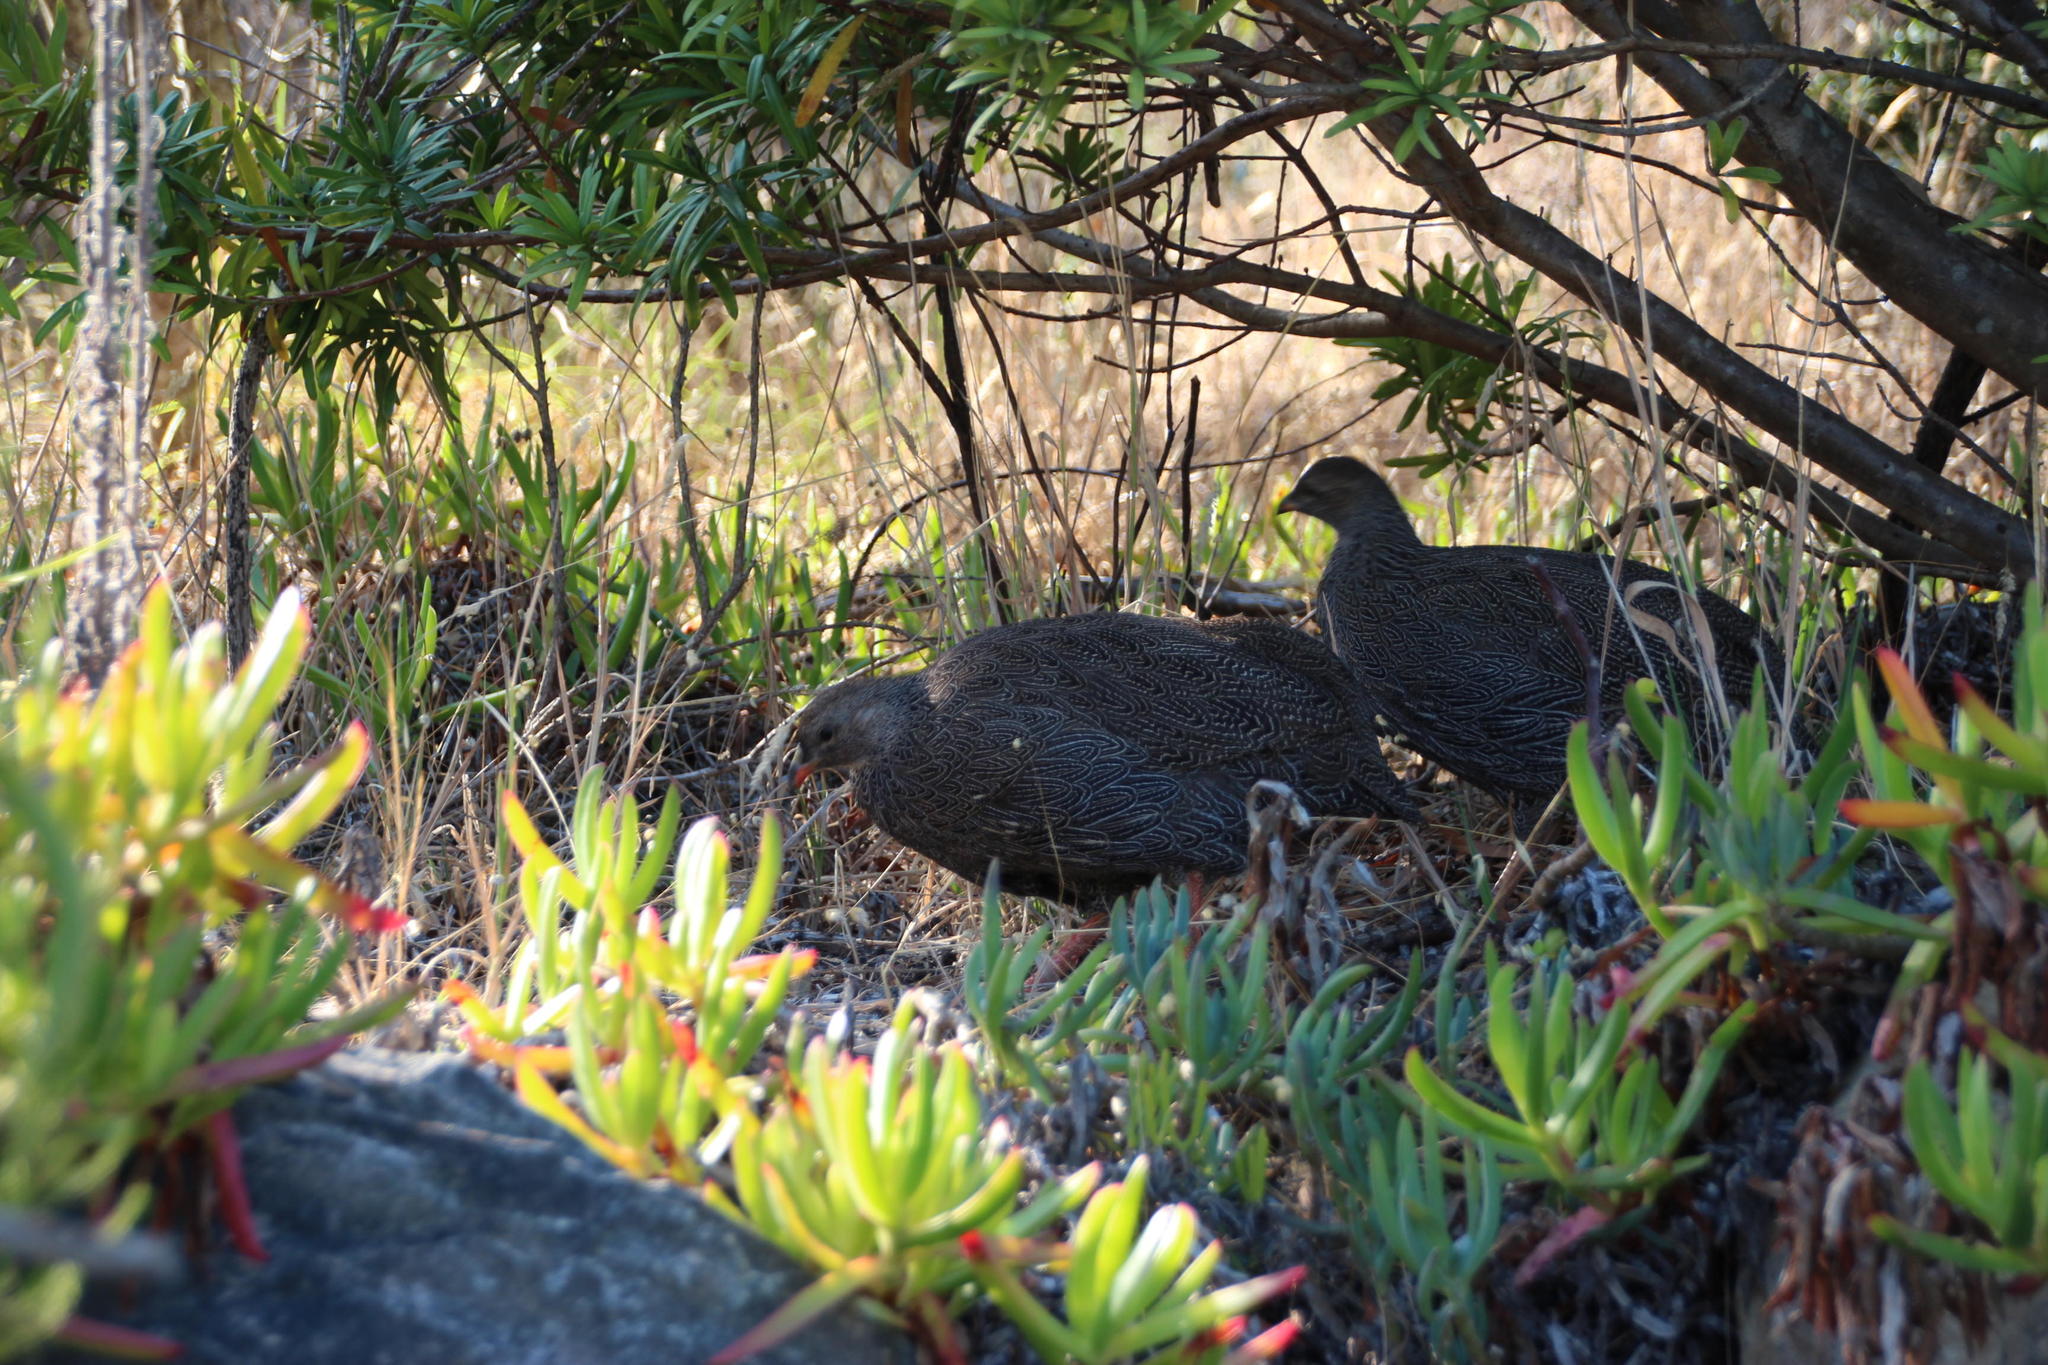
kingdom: Animalia
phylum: Chordata
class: Aves
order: Galliformes
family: Phasianidae
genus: Pternistis
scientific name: Pternistis capensis
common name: Cape spurfowl
